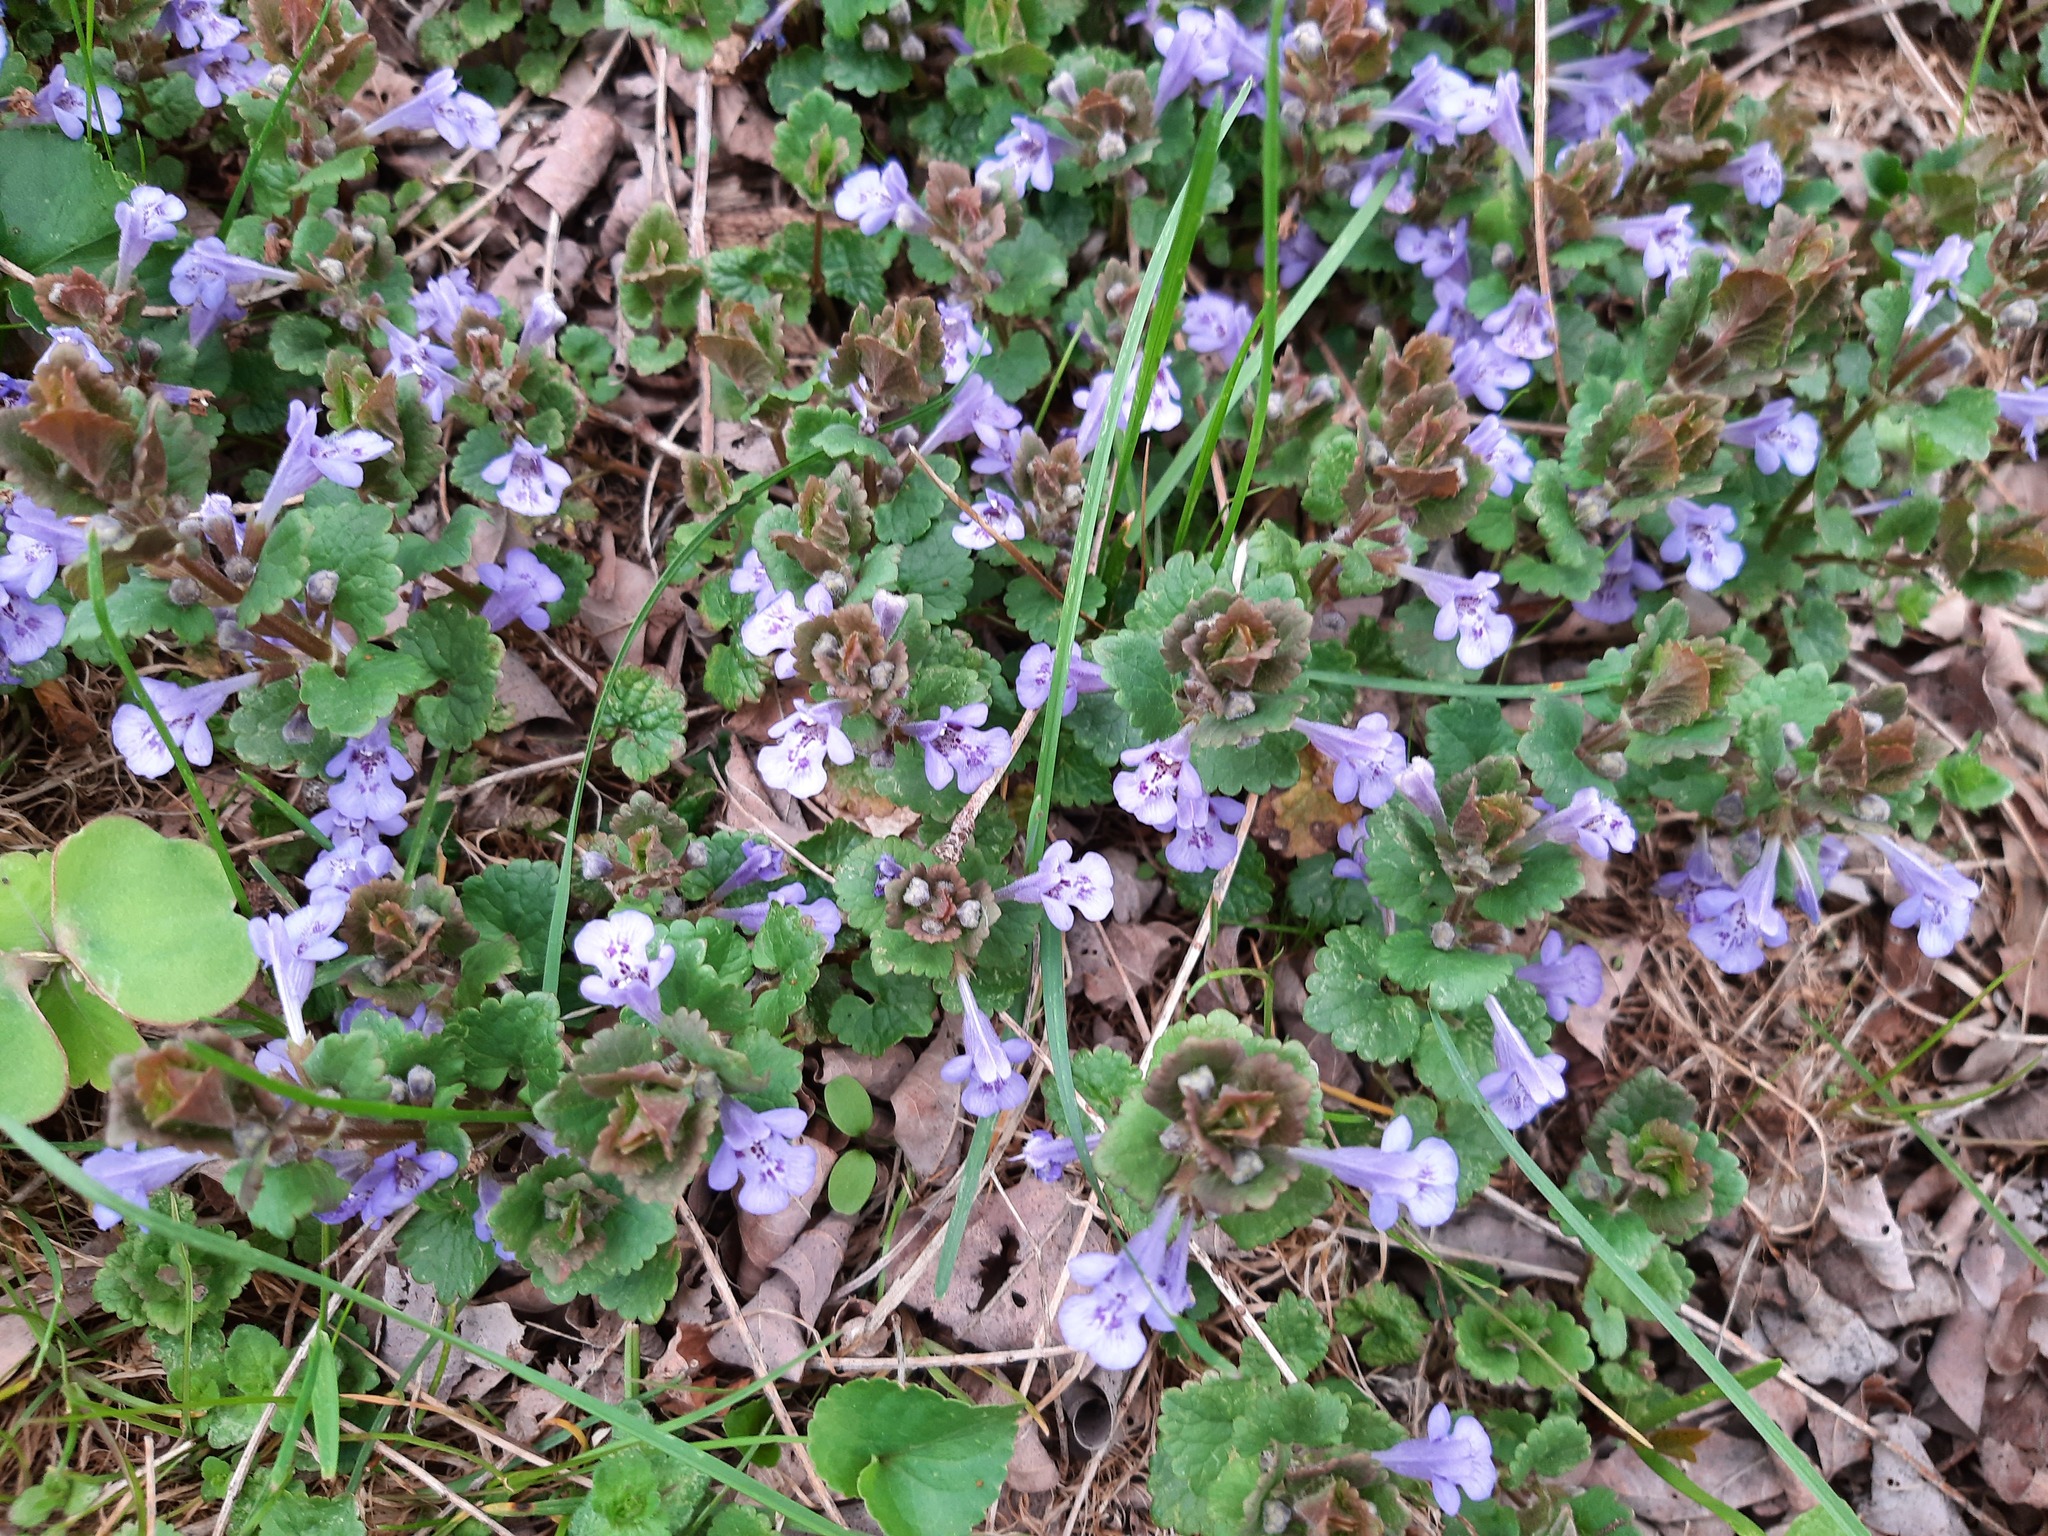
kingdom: Plantae
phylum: Tracheophyta
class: Magnoliopsida
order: Lamiales
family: Lamiaceae
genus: Glechoma
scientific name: Glechoma hederacea
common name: Ground ivy
